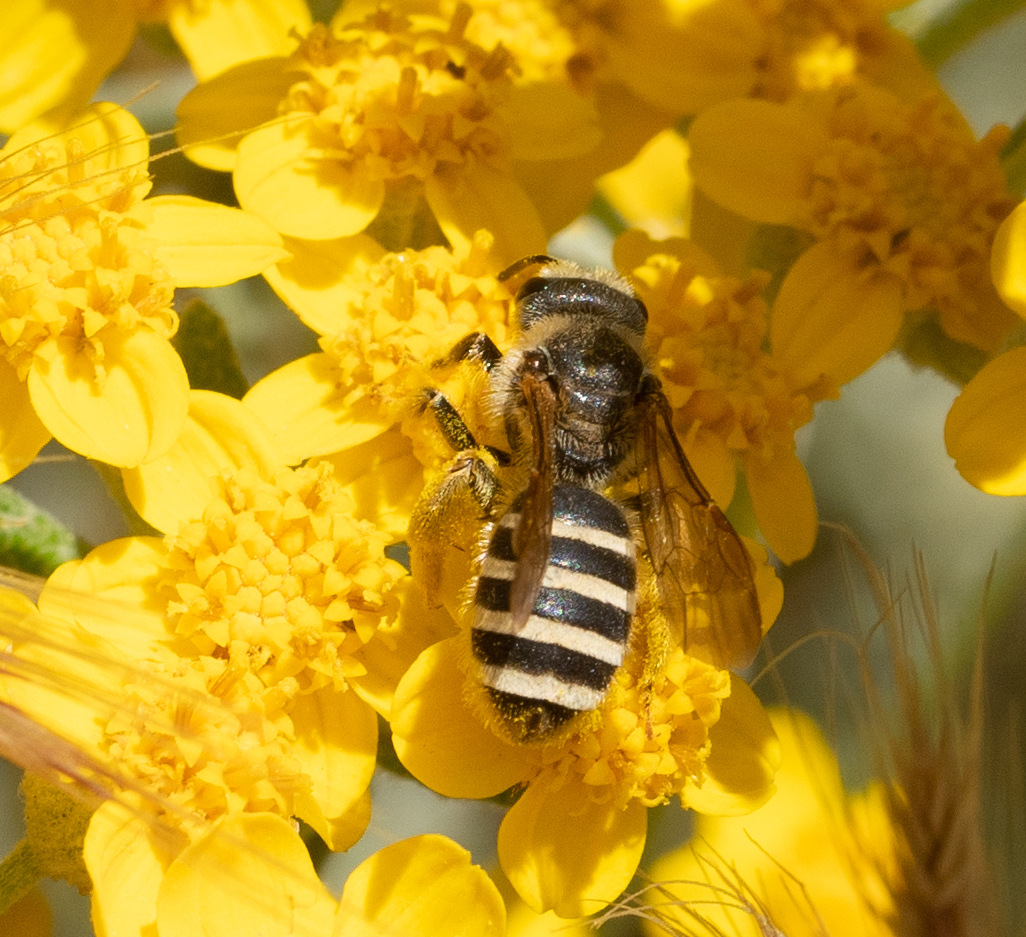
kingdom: Animalia
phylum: Arthropoda
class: Insecta
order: Hymenoptera
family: Halictidae
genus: Halictus
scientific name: Halictus farinosus
